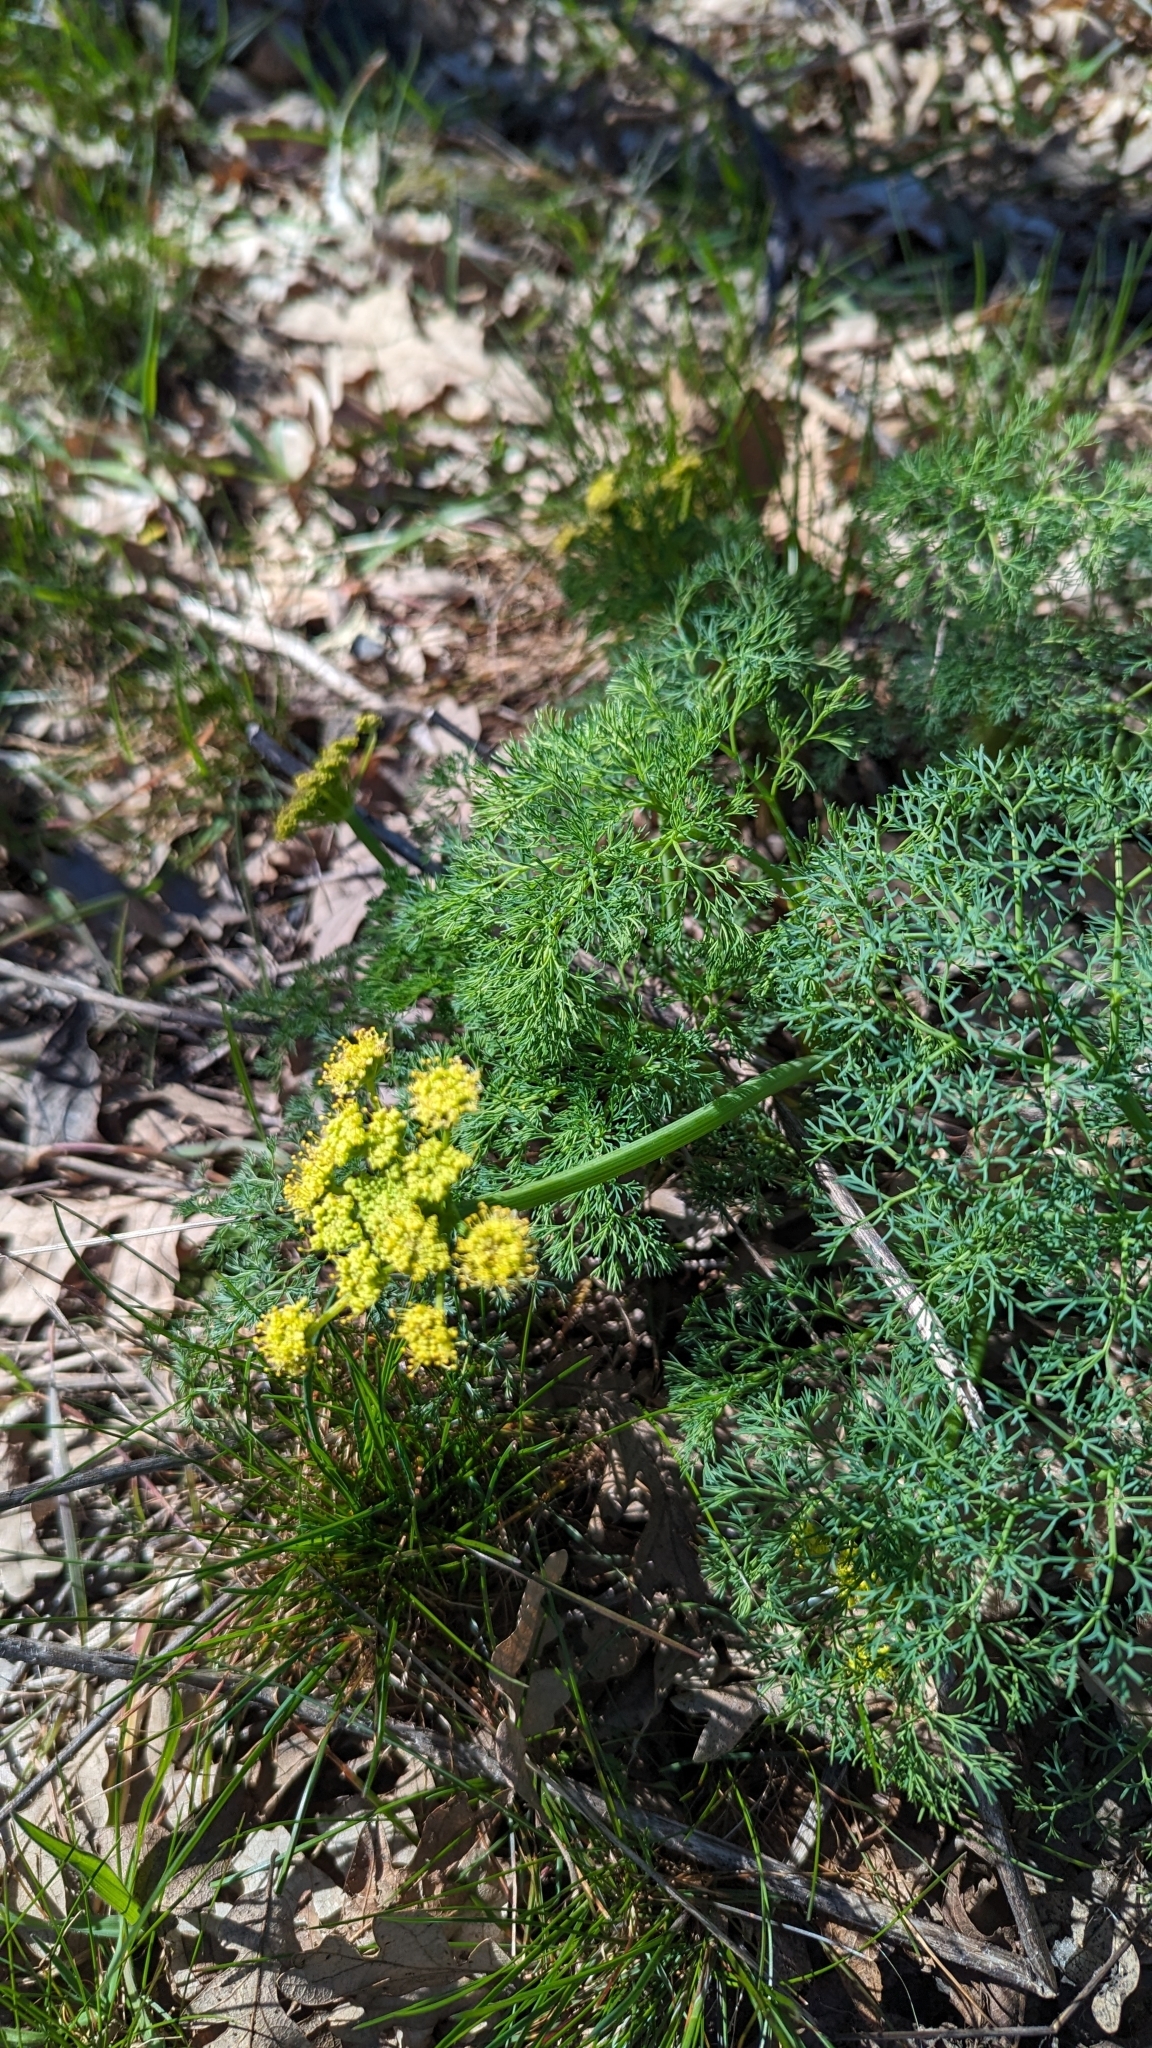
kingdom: Plantae
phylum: Tracheophyta
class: Magnoliopsida
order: Apiales
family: Apiaceae
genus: Lomatium
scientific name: Lomatium klickitatense
